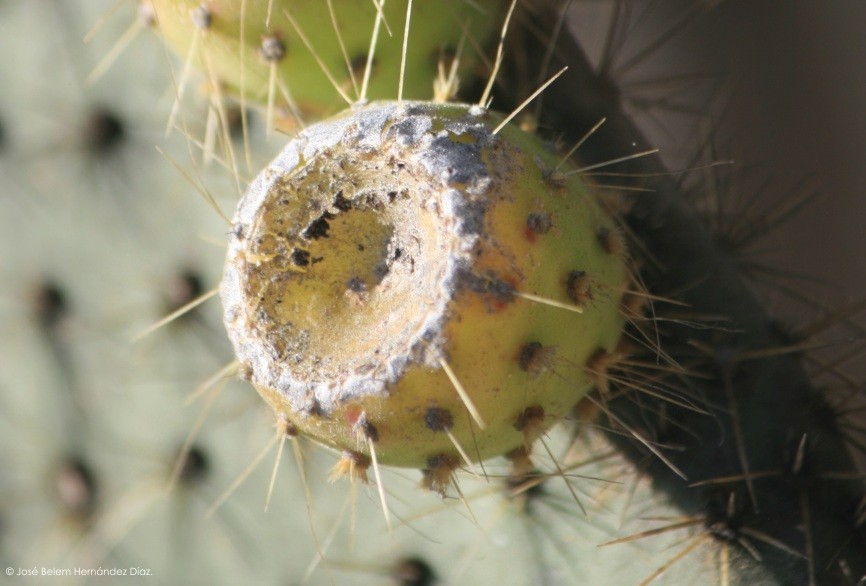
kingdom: Plantae
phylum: Tracheophyta
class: Magnoliopsida
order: Caryophyllales
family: Cactaceae
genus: Opuntia
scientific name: Opuntia leucotricha
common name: Arborescent pricklypear
